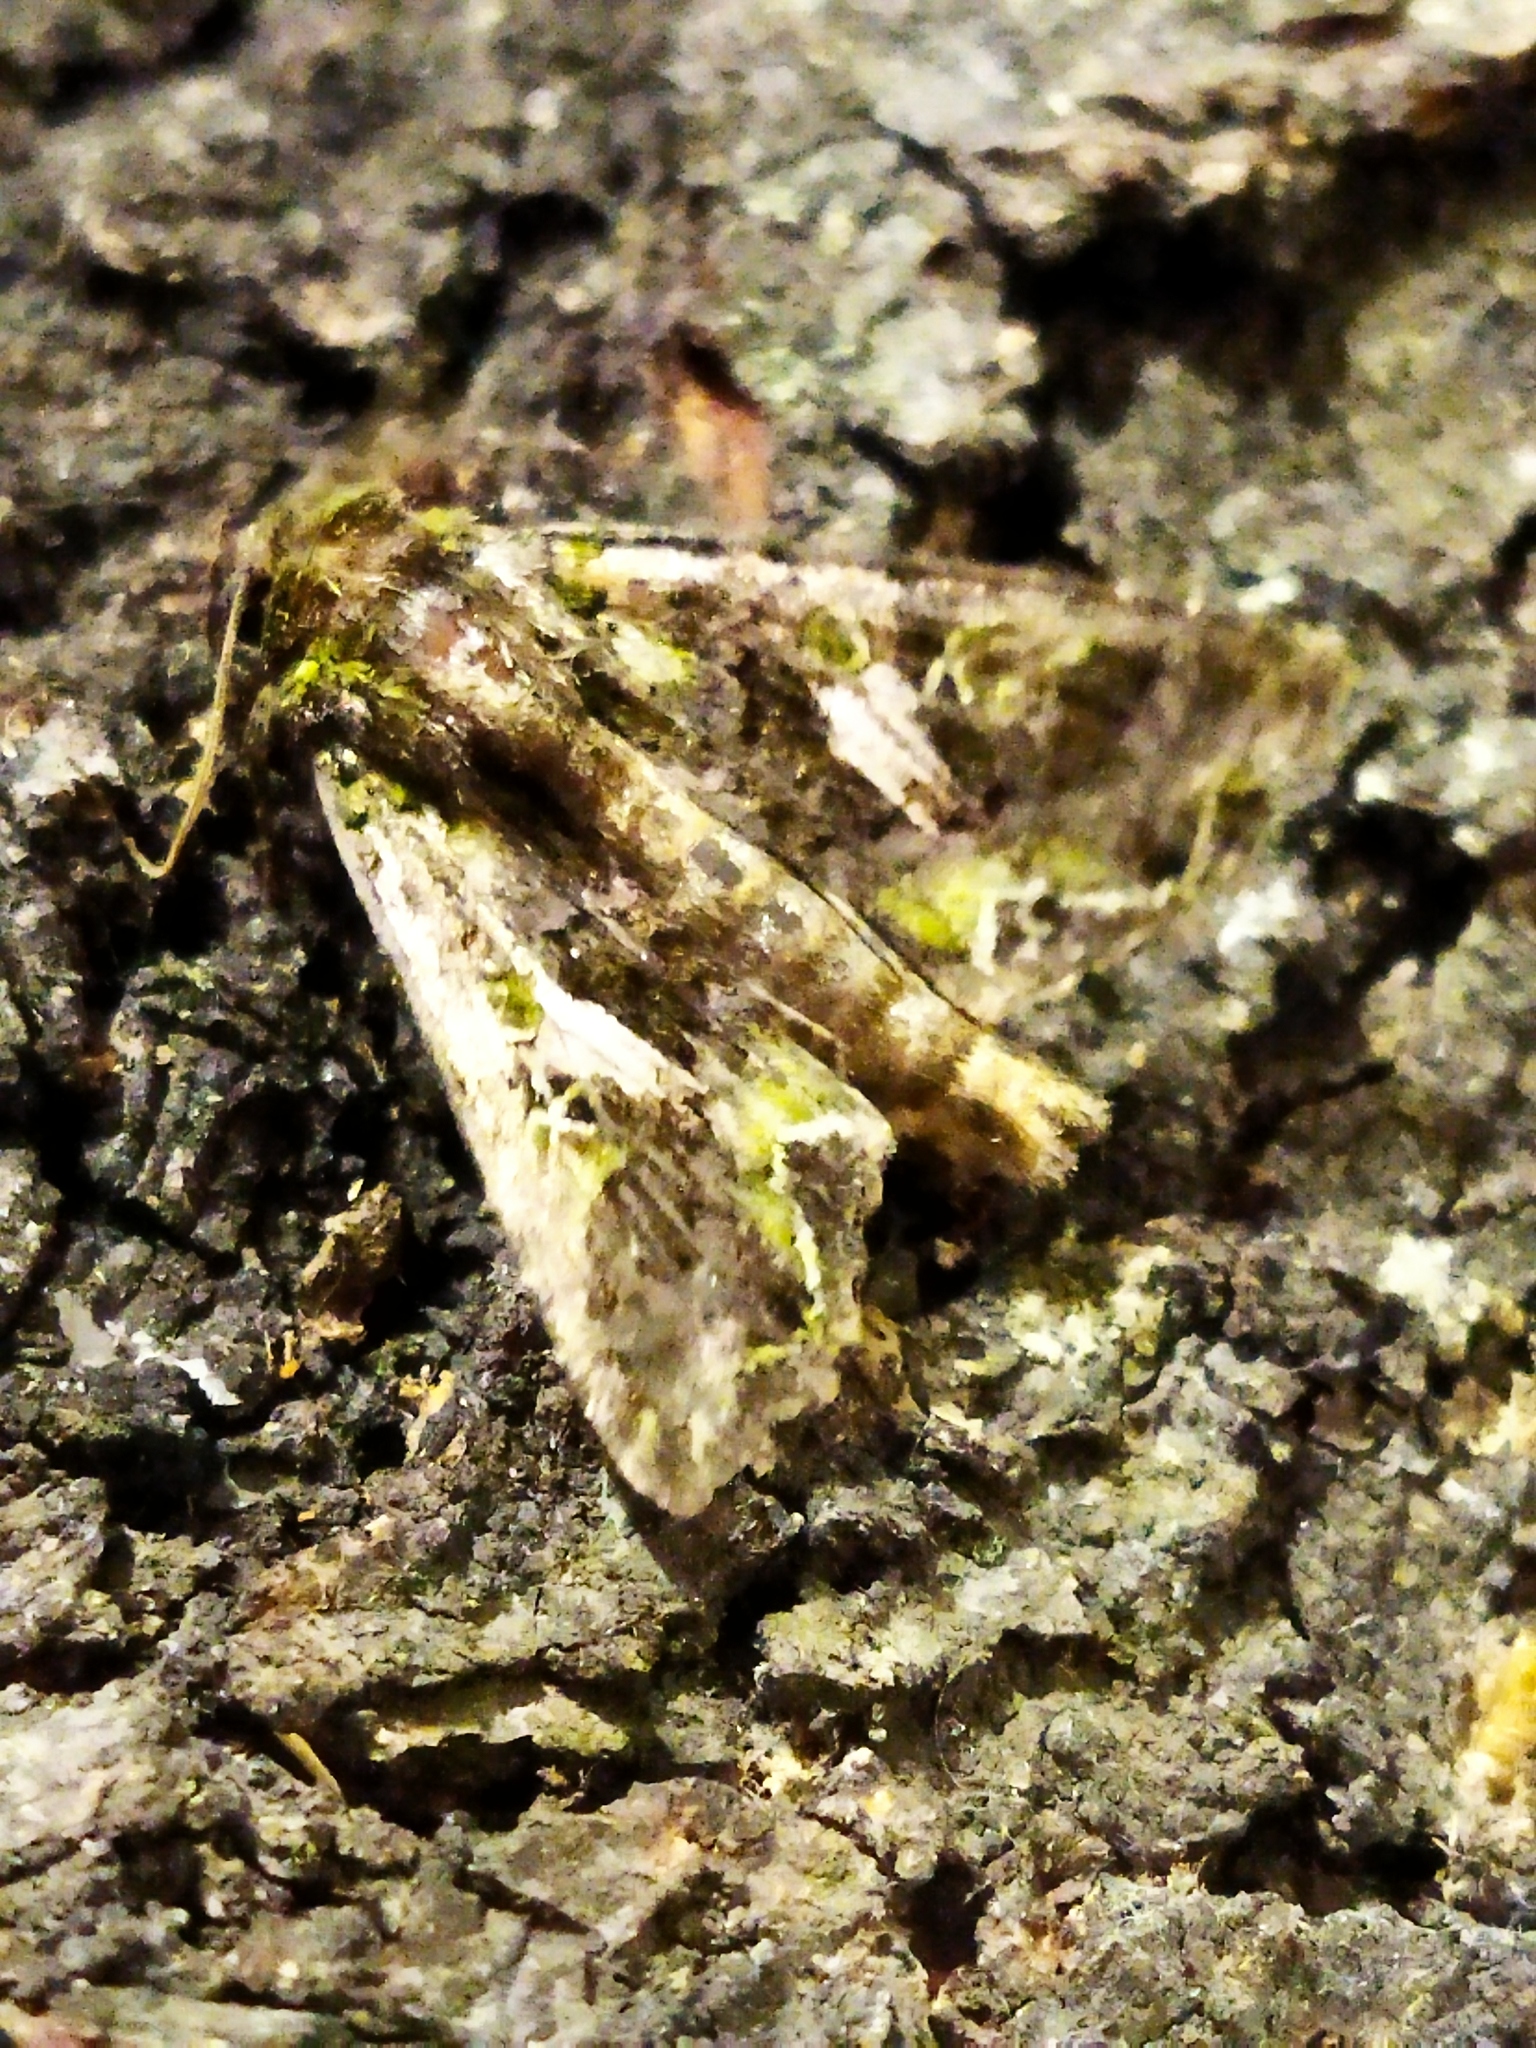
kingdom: Animalia
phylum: Arthropoda
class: Insecta
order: Lepidoptera
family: Noctuidae
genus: Trachea
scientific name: Trachea atriplicis
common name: Orache moth
